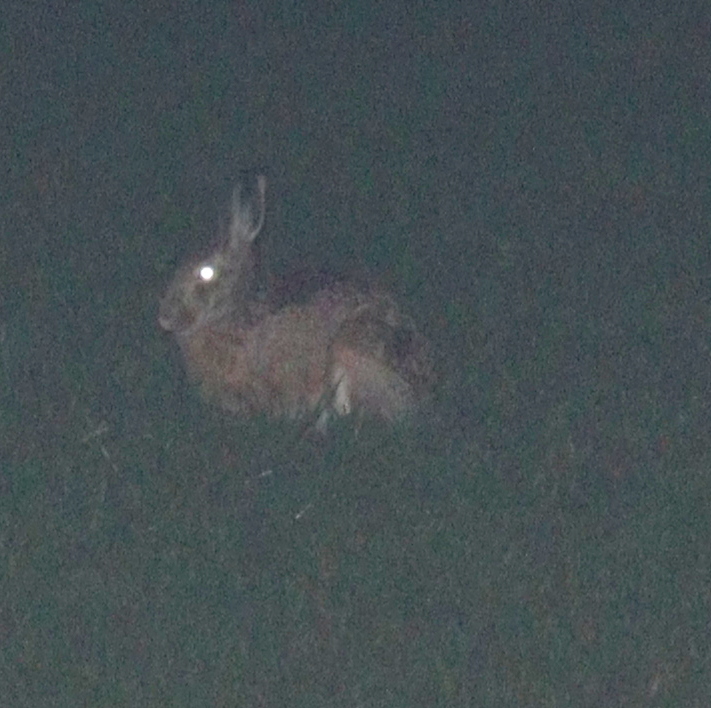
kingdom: Animalia
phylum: Chordata
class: Mammalia
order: Lagomorpha
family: Leporidae
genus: Lepus
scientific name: Lepus europaeus
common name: European hare
